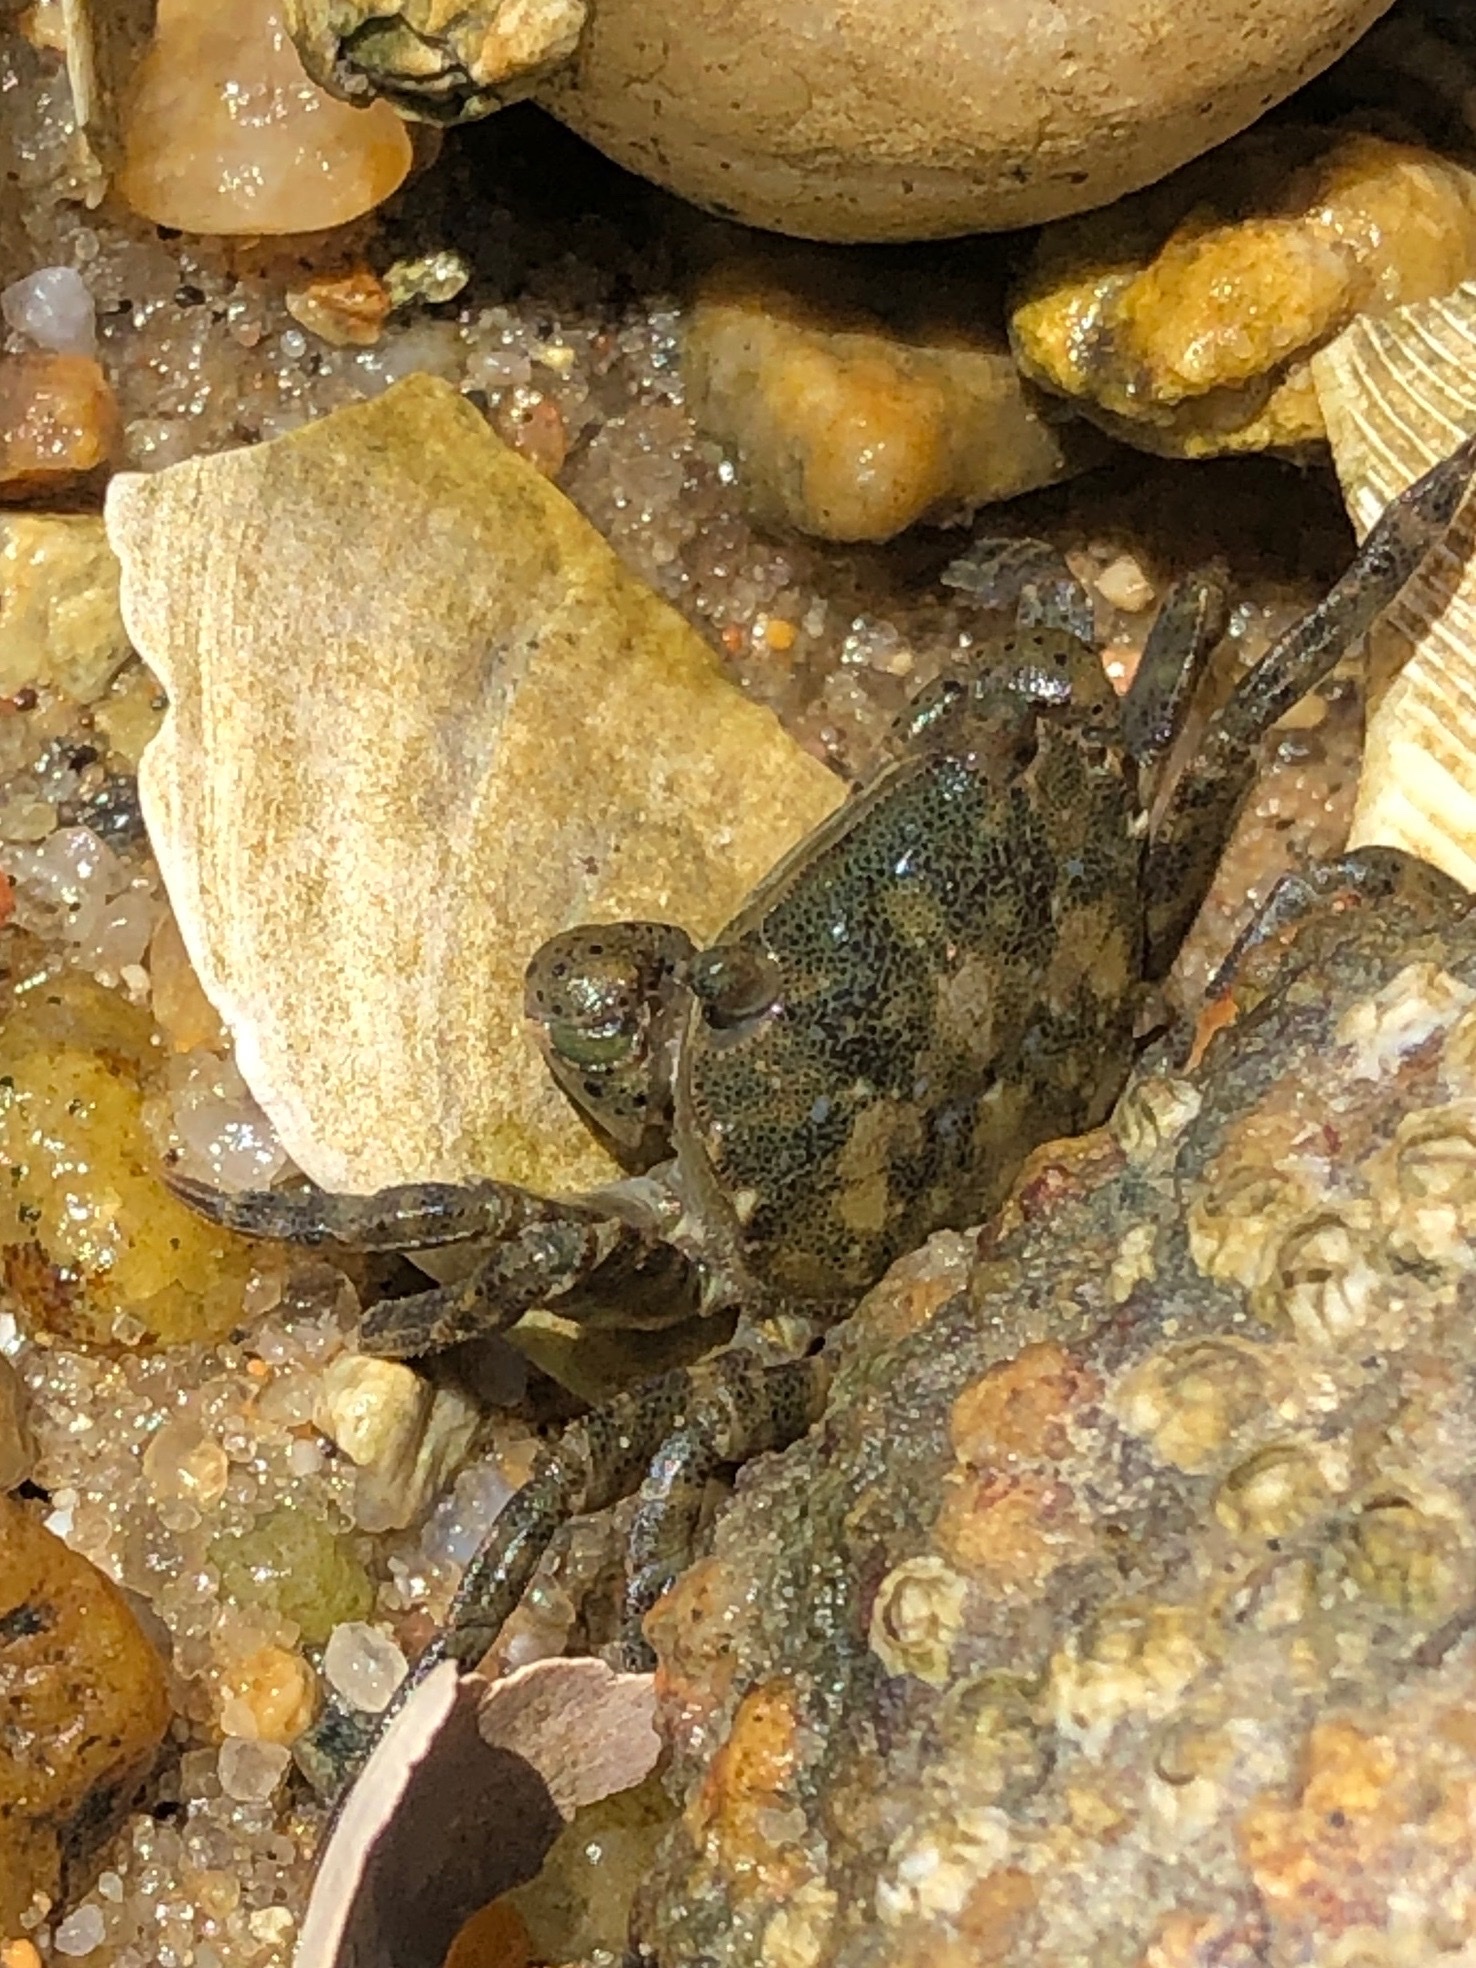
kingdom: Animalia
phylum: Arthropoda
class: Malacostraca
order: Decapoda
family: Varunidae
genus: Hemigrapsus
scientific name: Hemigrapsus sanguineus
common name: Asian shore crab
